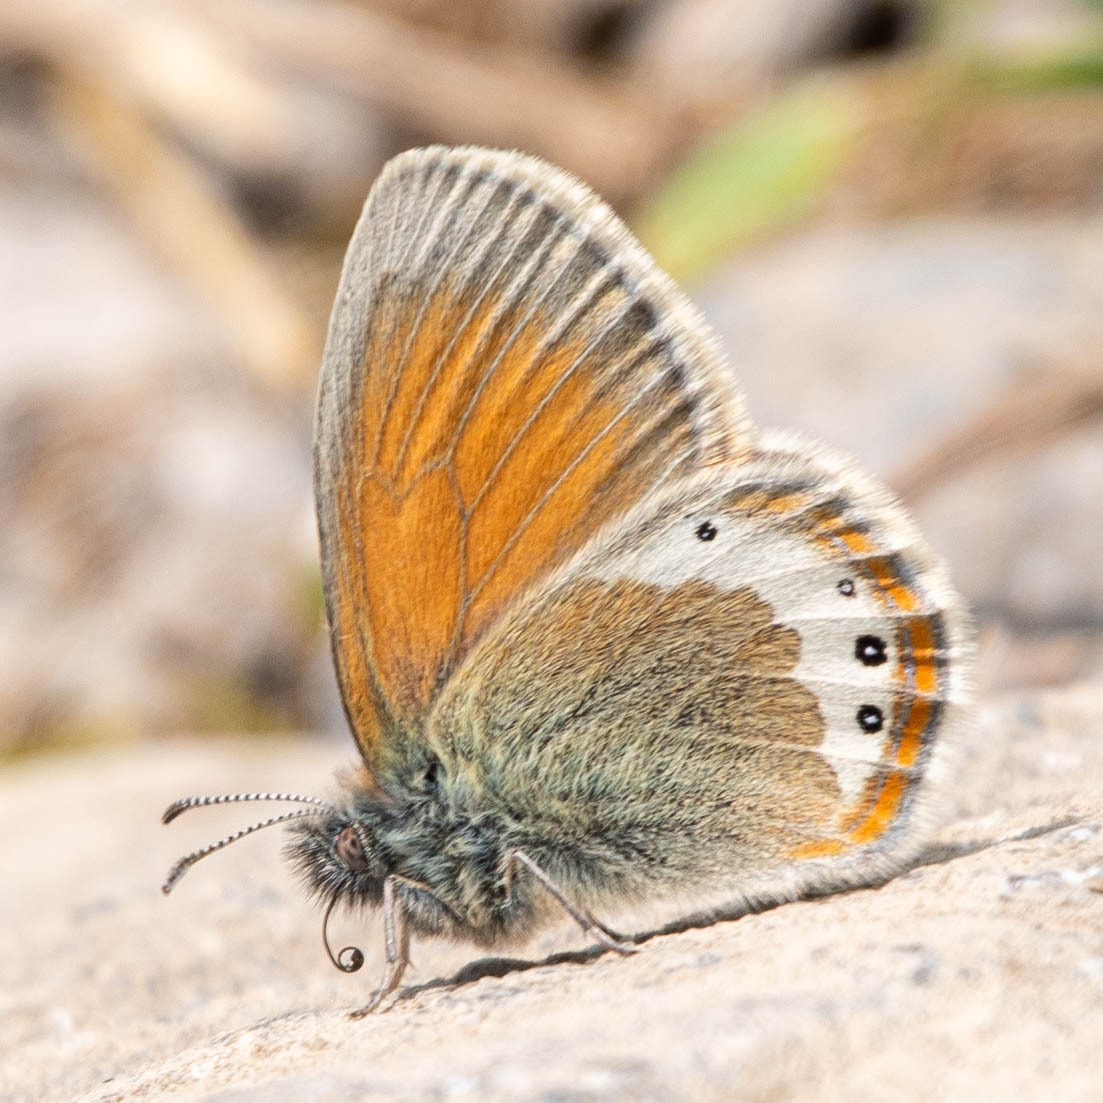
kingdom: Animalia
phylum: Arthropoda
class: Insecta
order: Lepidoptera
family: Nymphalidae
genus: Coenonympha
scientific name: Coenonympha
